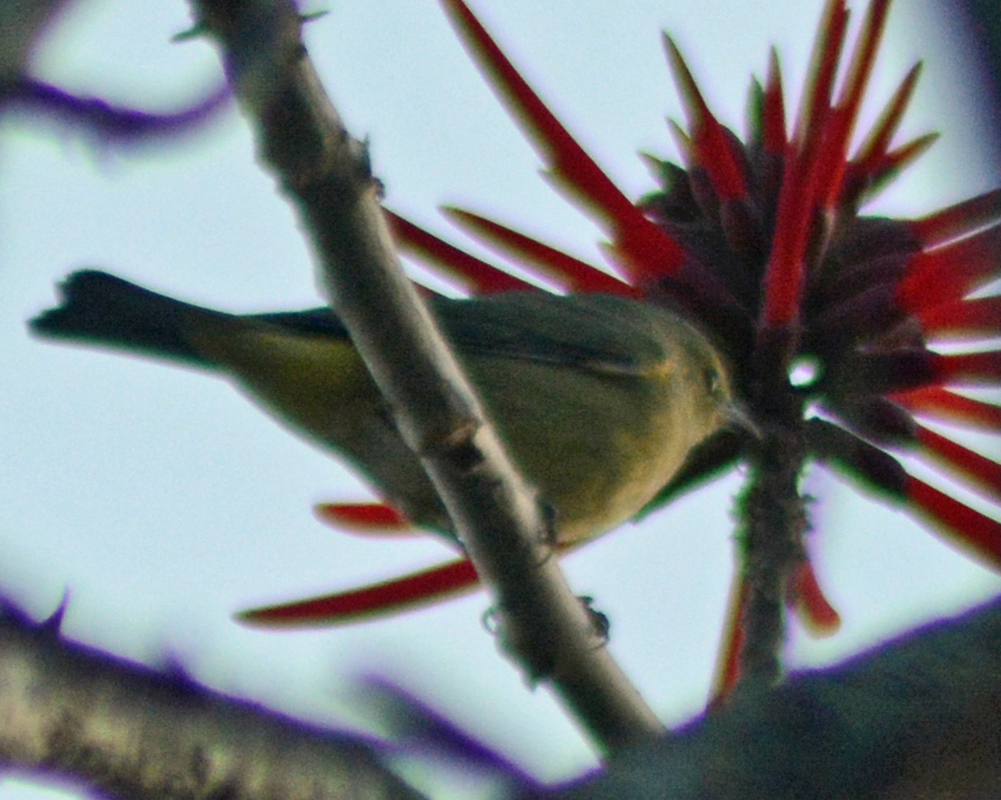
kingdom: Animalia
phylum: Chordata
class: Aves
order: Passeriformes
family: Parulidae
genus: Leiothlypis
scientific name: Leiothlypis celata
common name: Orange-crowned warbler
